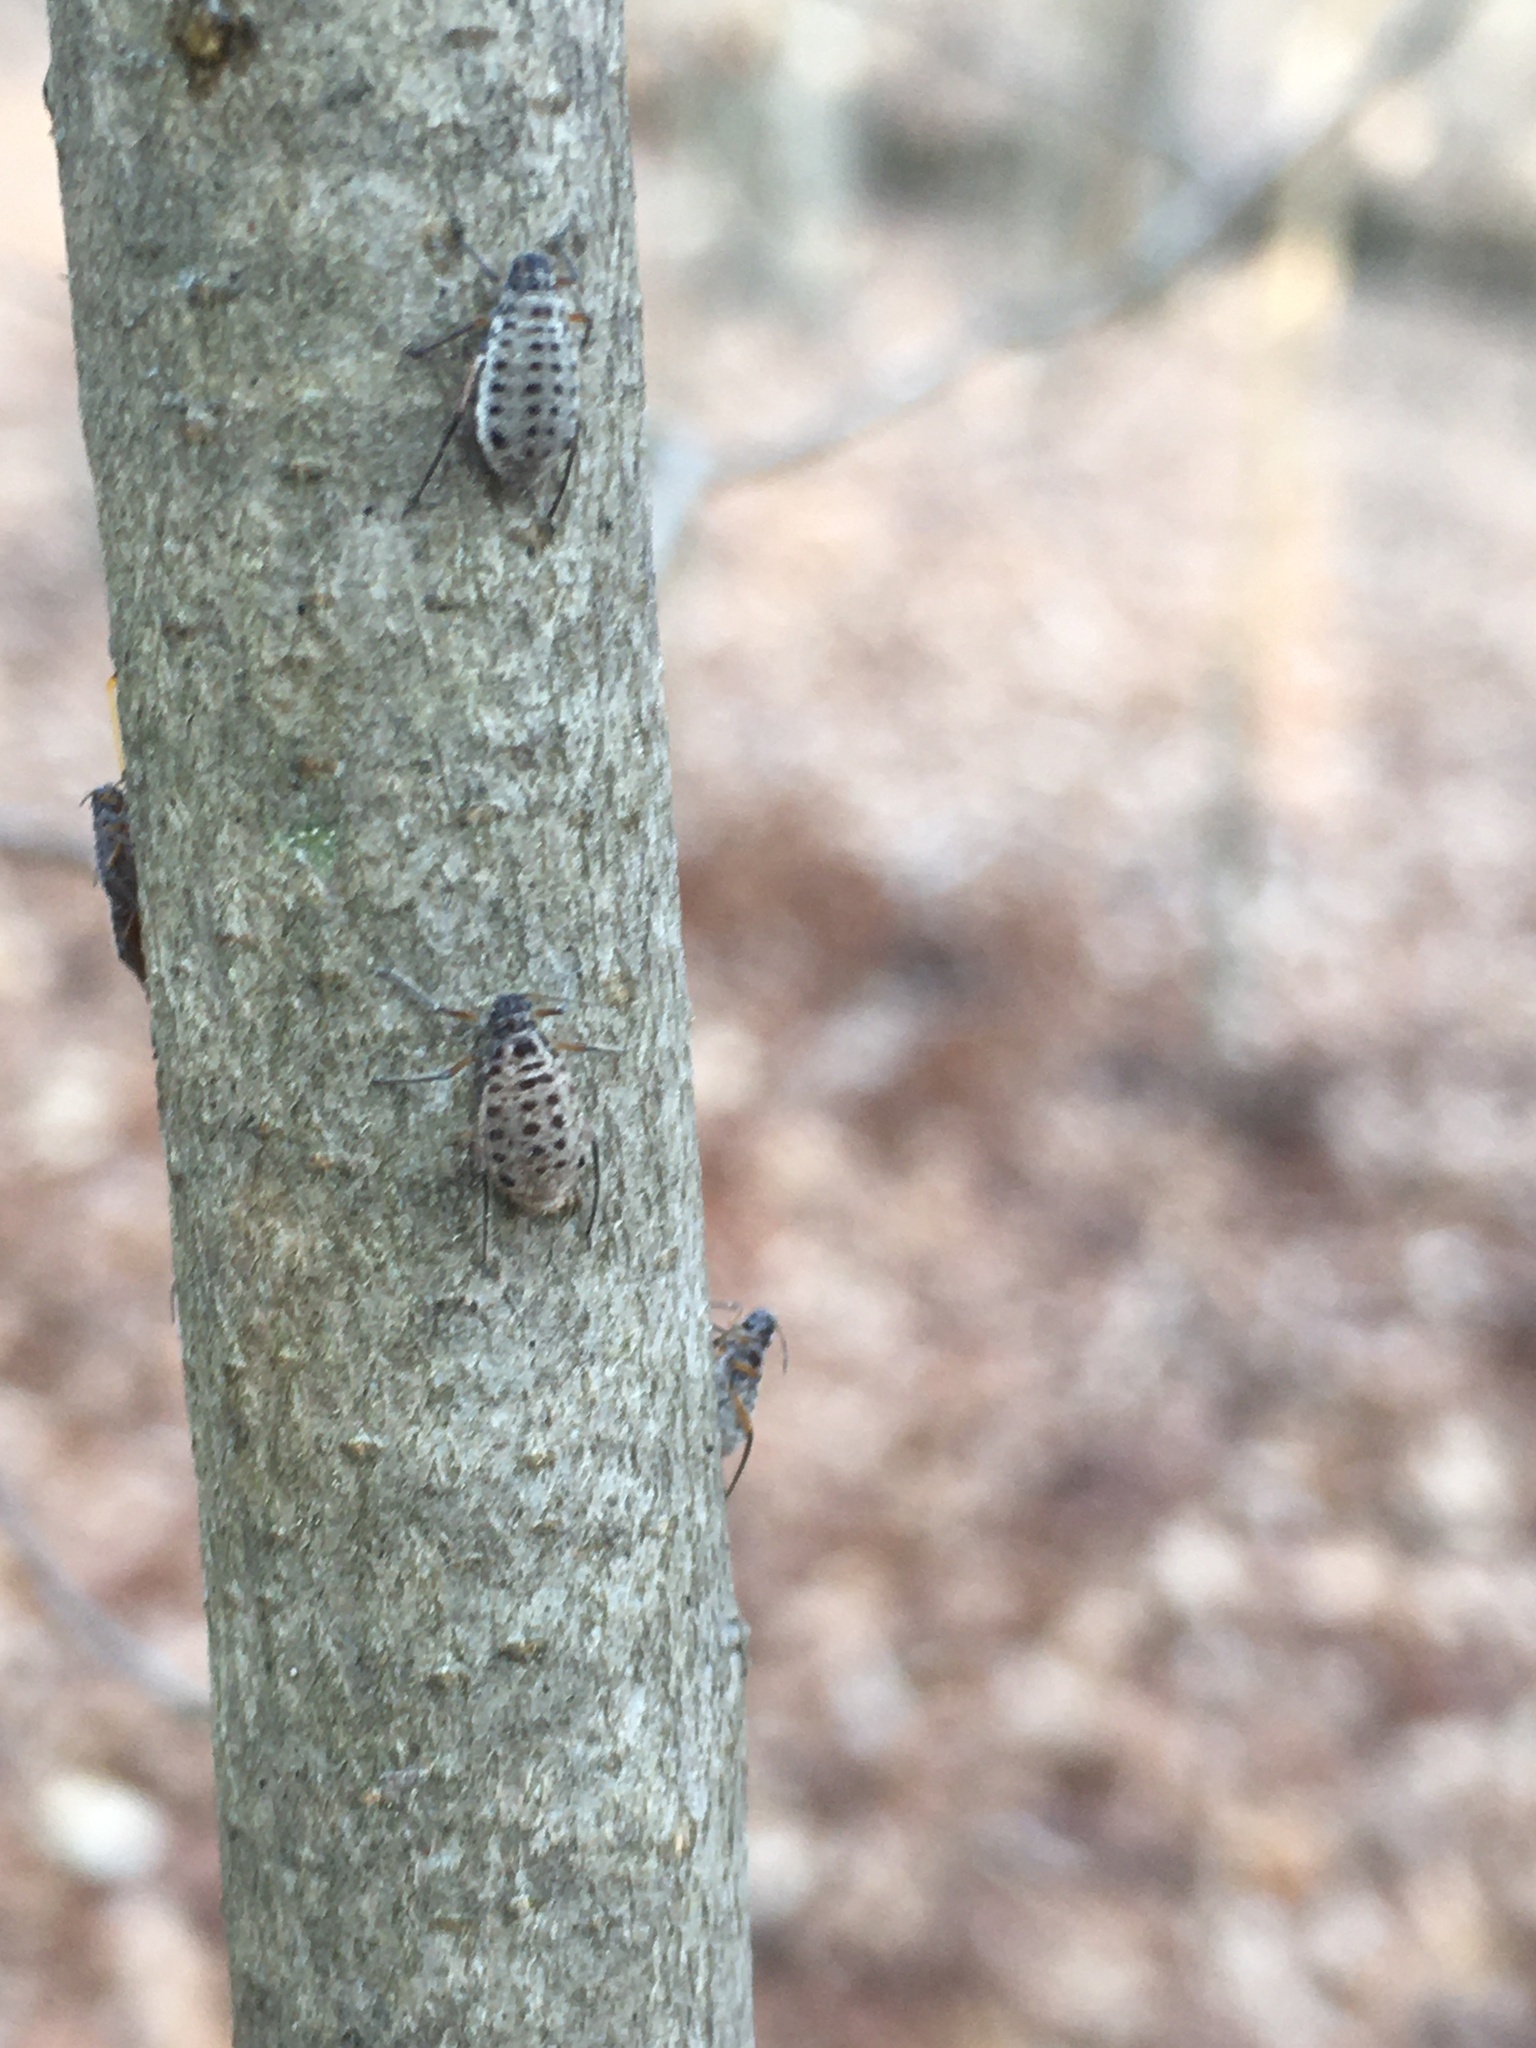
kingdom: Animalia
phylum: Arthropoda
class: Insecta
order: Hemiptera
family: Aphididae
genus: Longistigma
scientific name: Longistigma caryae
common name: Giant bark aphid
